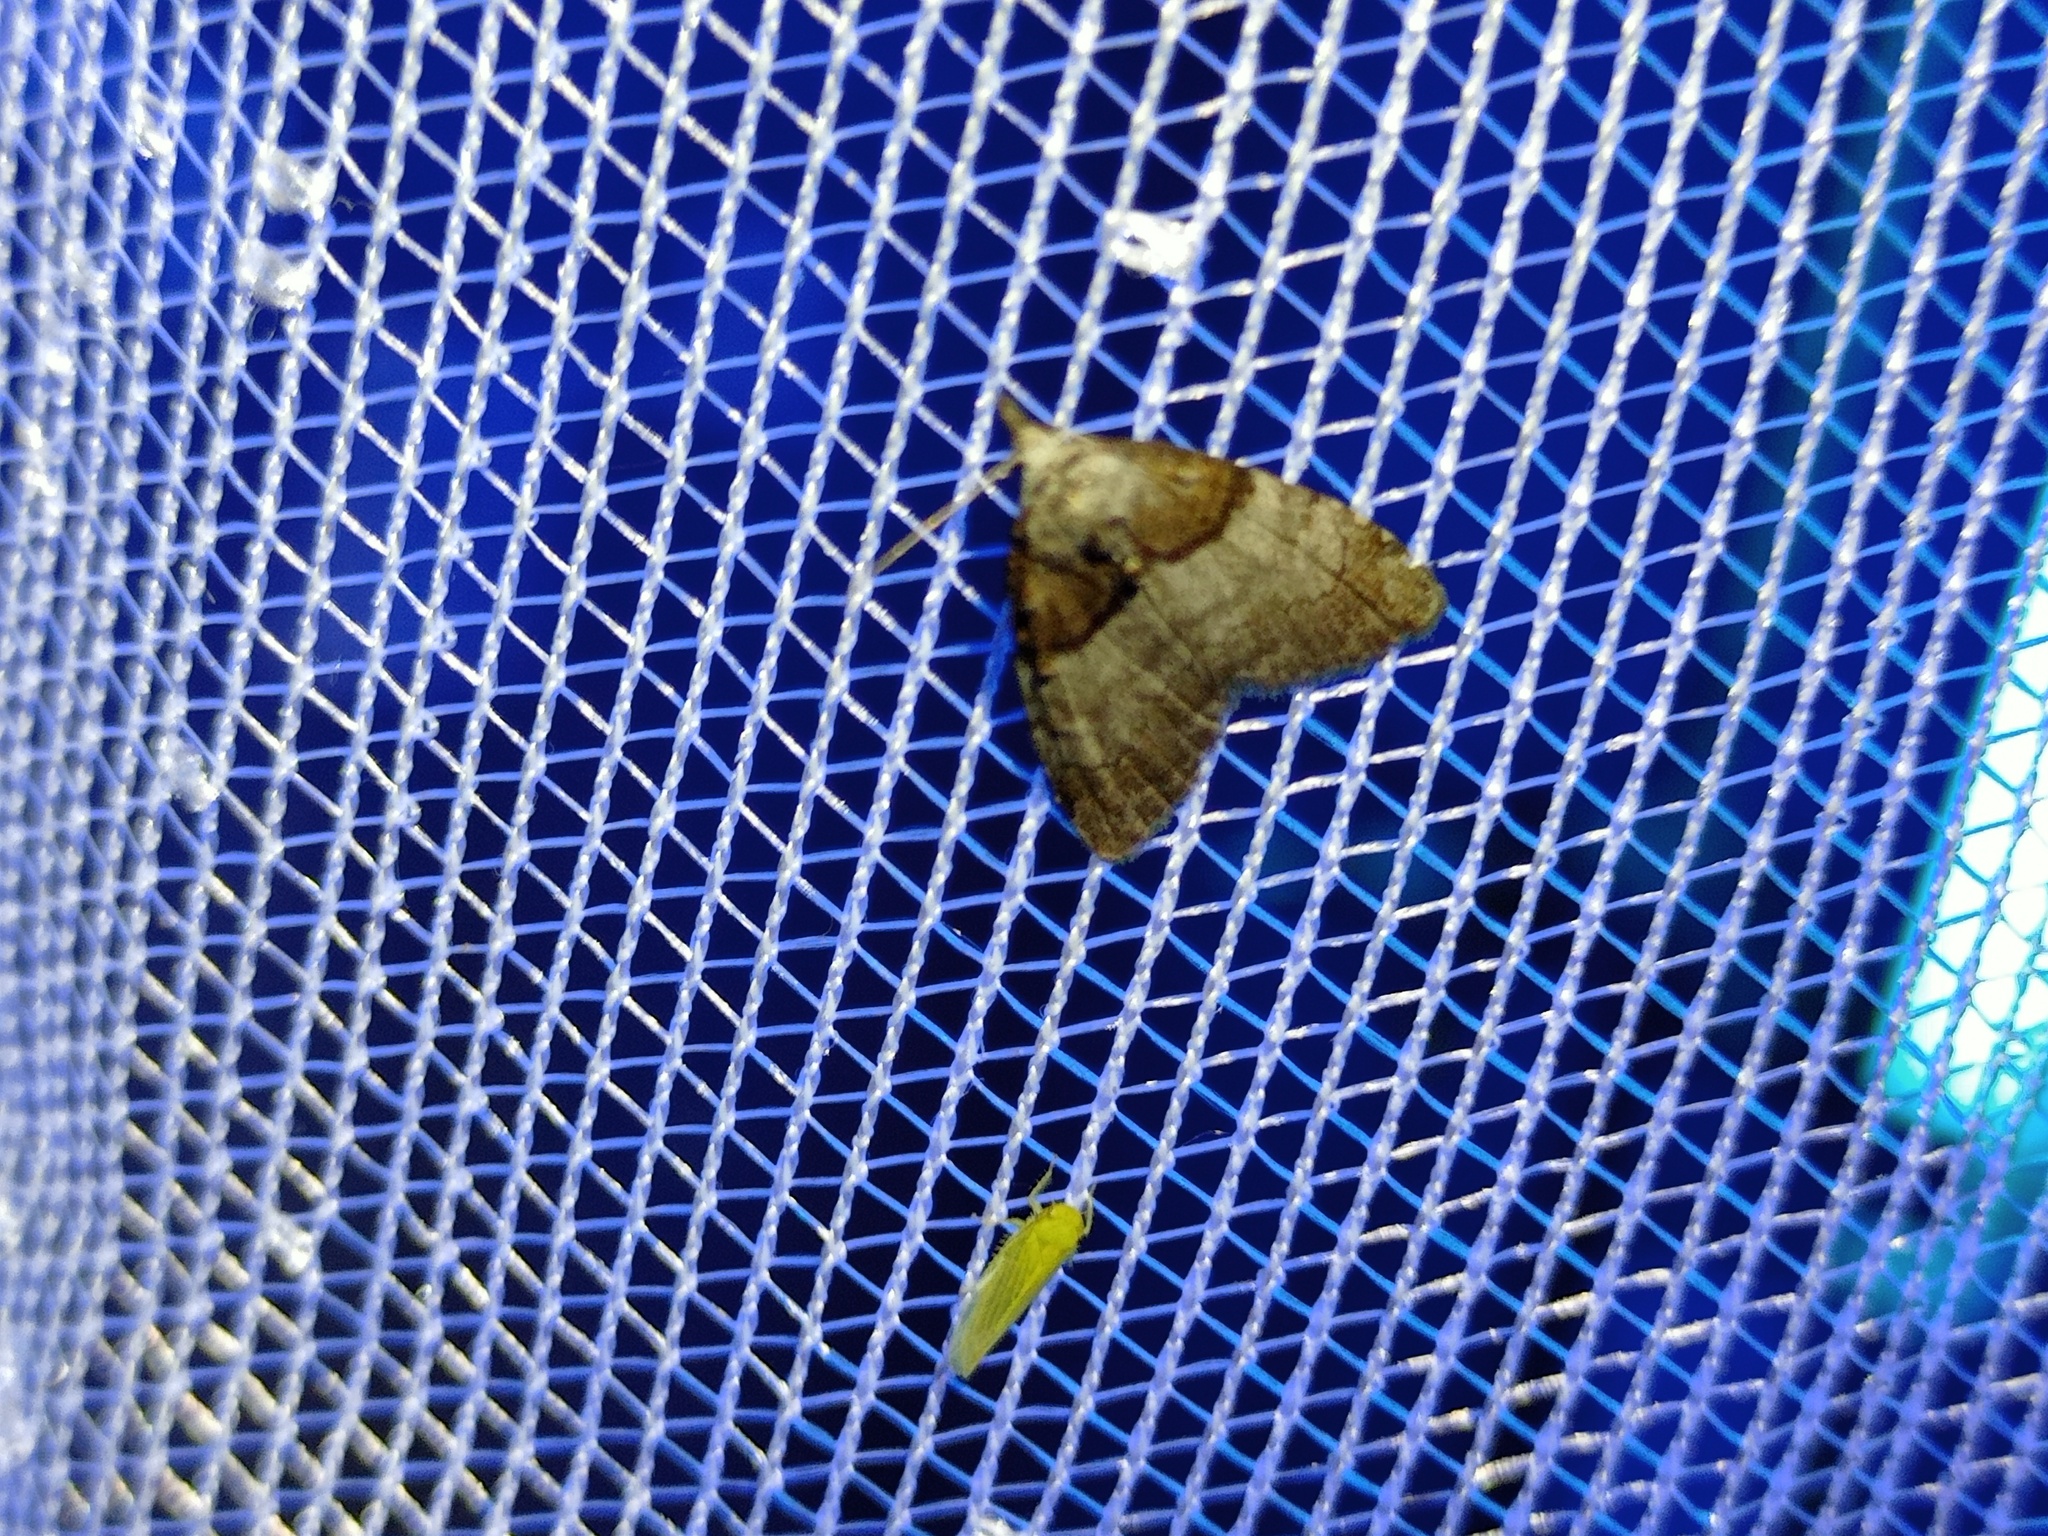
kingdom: Animalia
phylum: Arthropoda
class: Insecta
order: Lepidoptera
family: Nolidae
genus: Nola
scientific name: Nola cucullatella
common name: Short-cloaked moth
